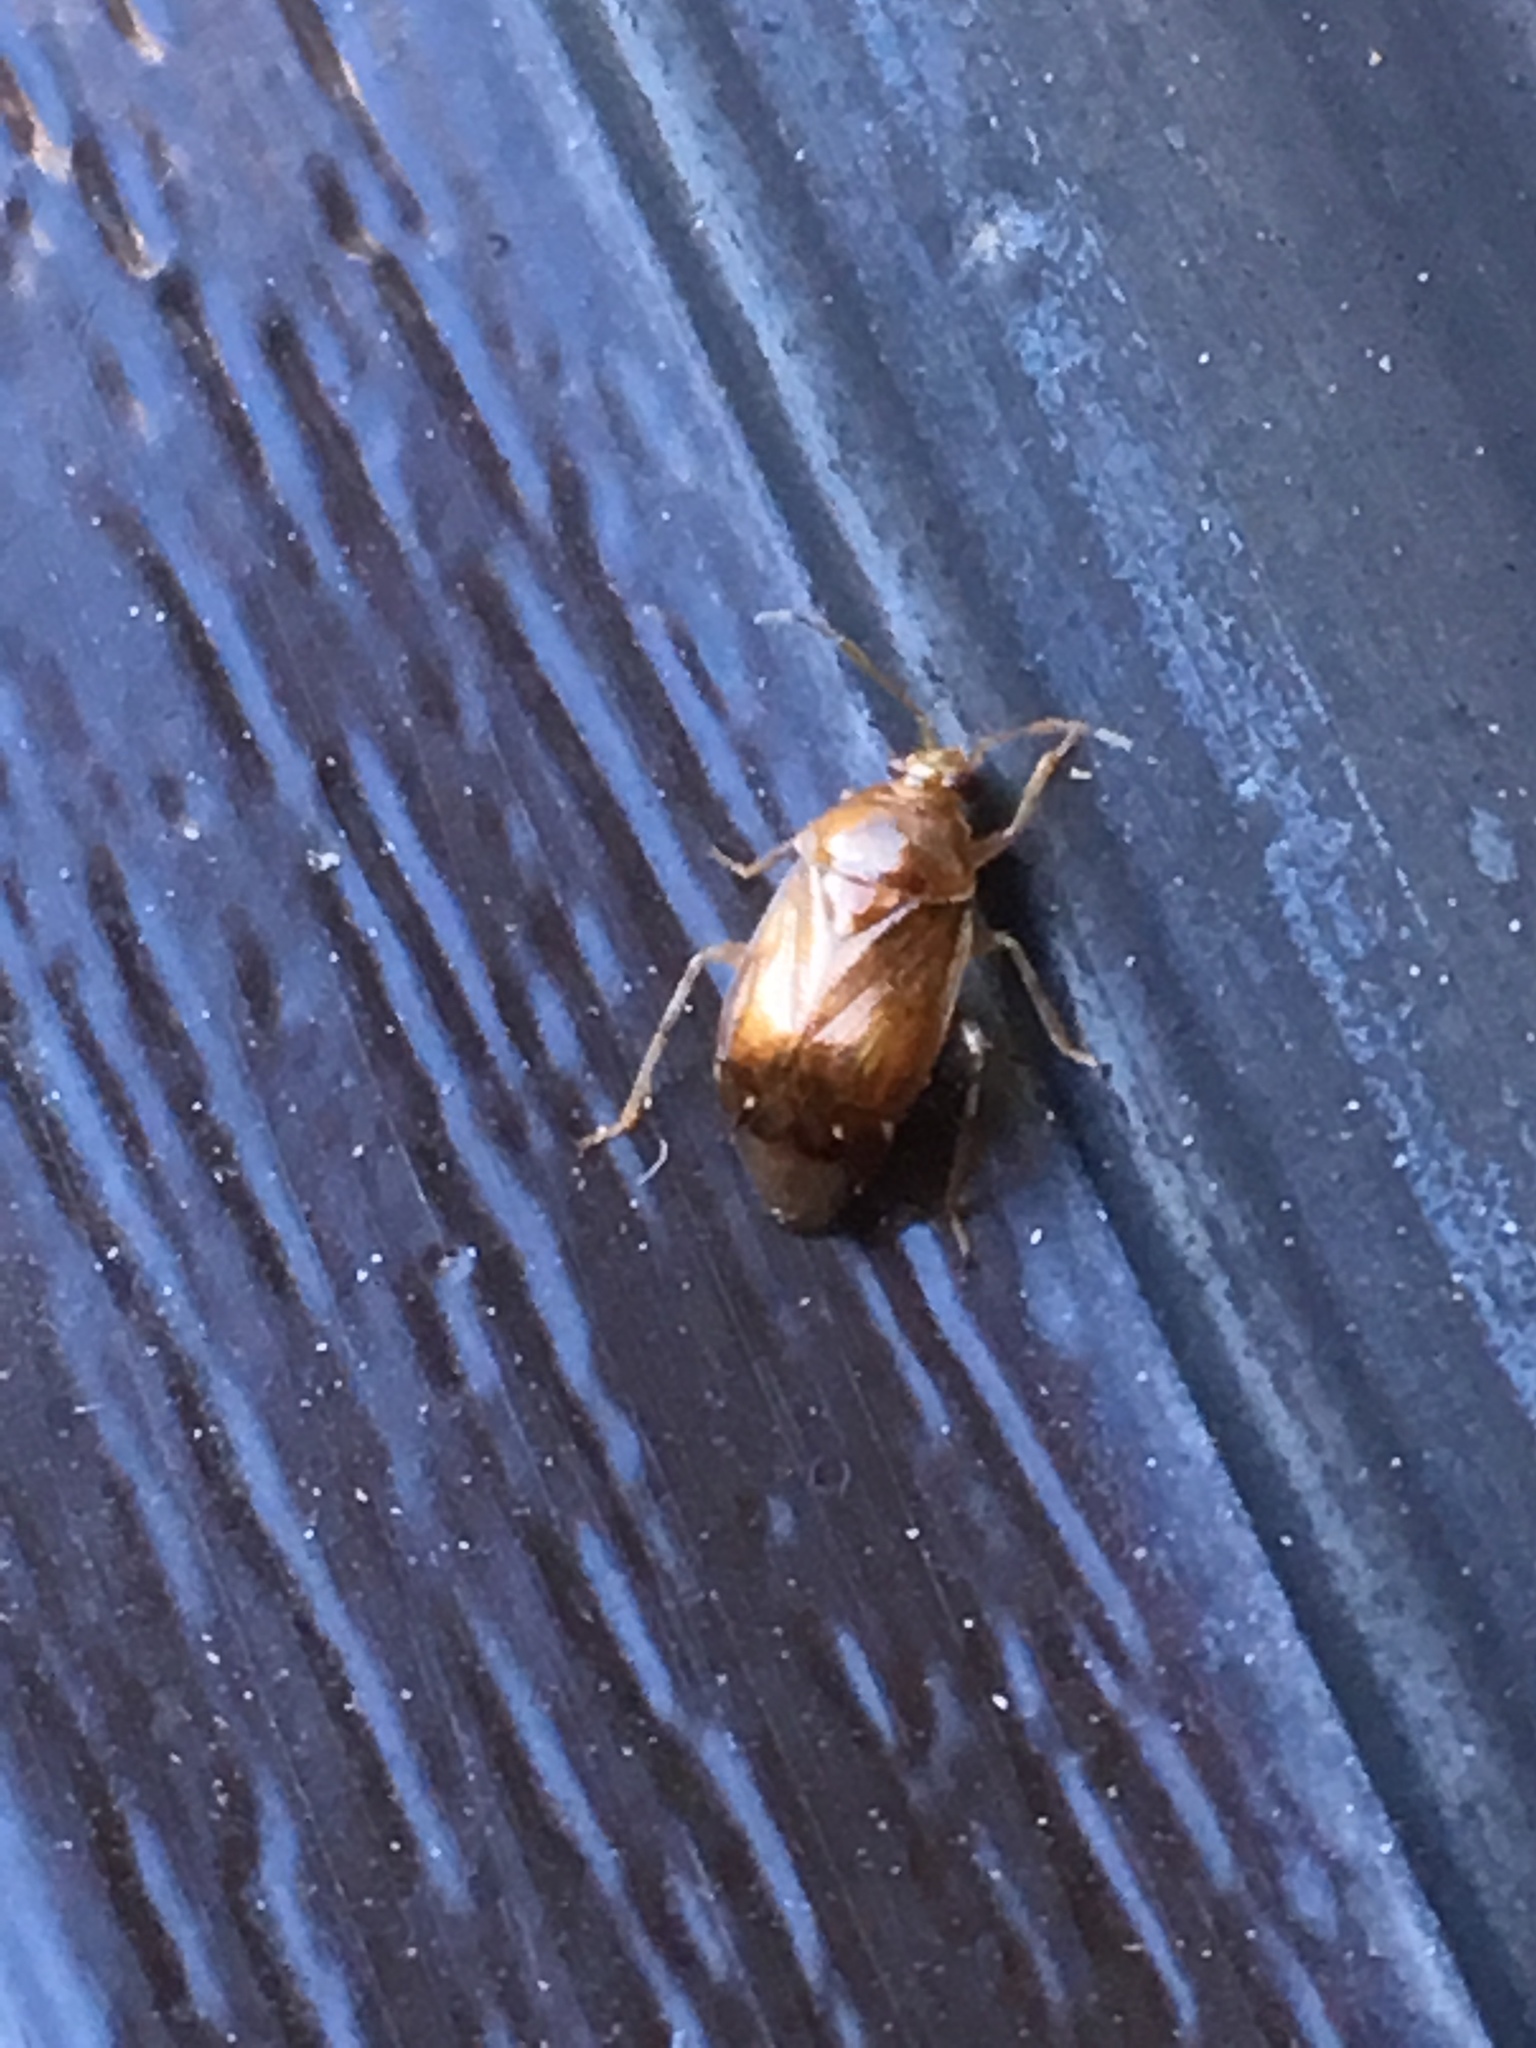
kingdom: Animalia
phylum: Arthropoda
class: Insecta
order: Hemiptera
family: Miridae
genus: Deraeocoris
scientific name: Deraeocoris lutescens
